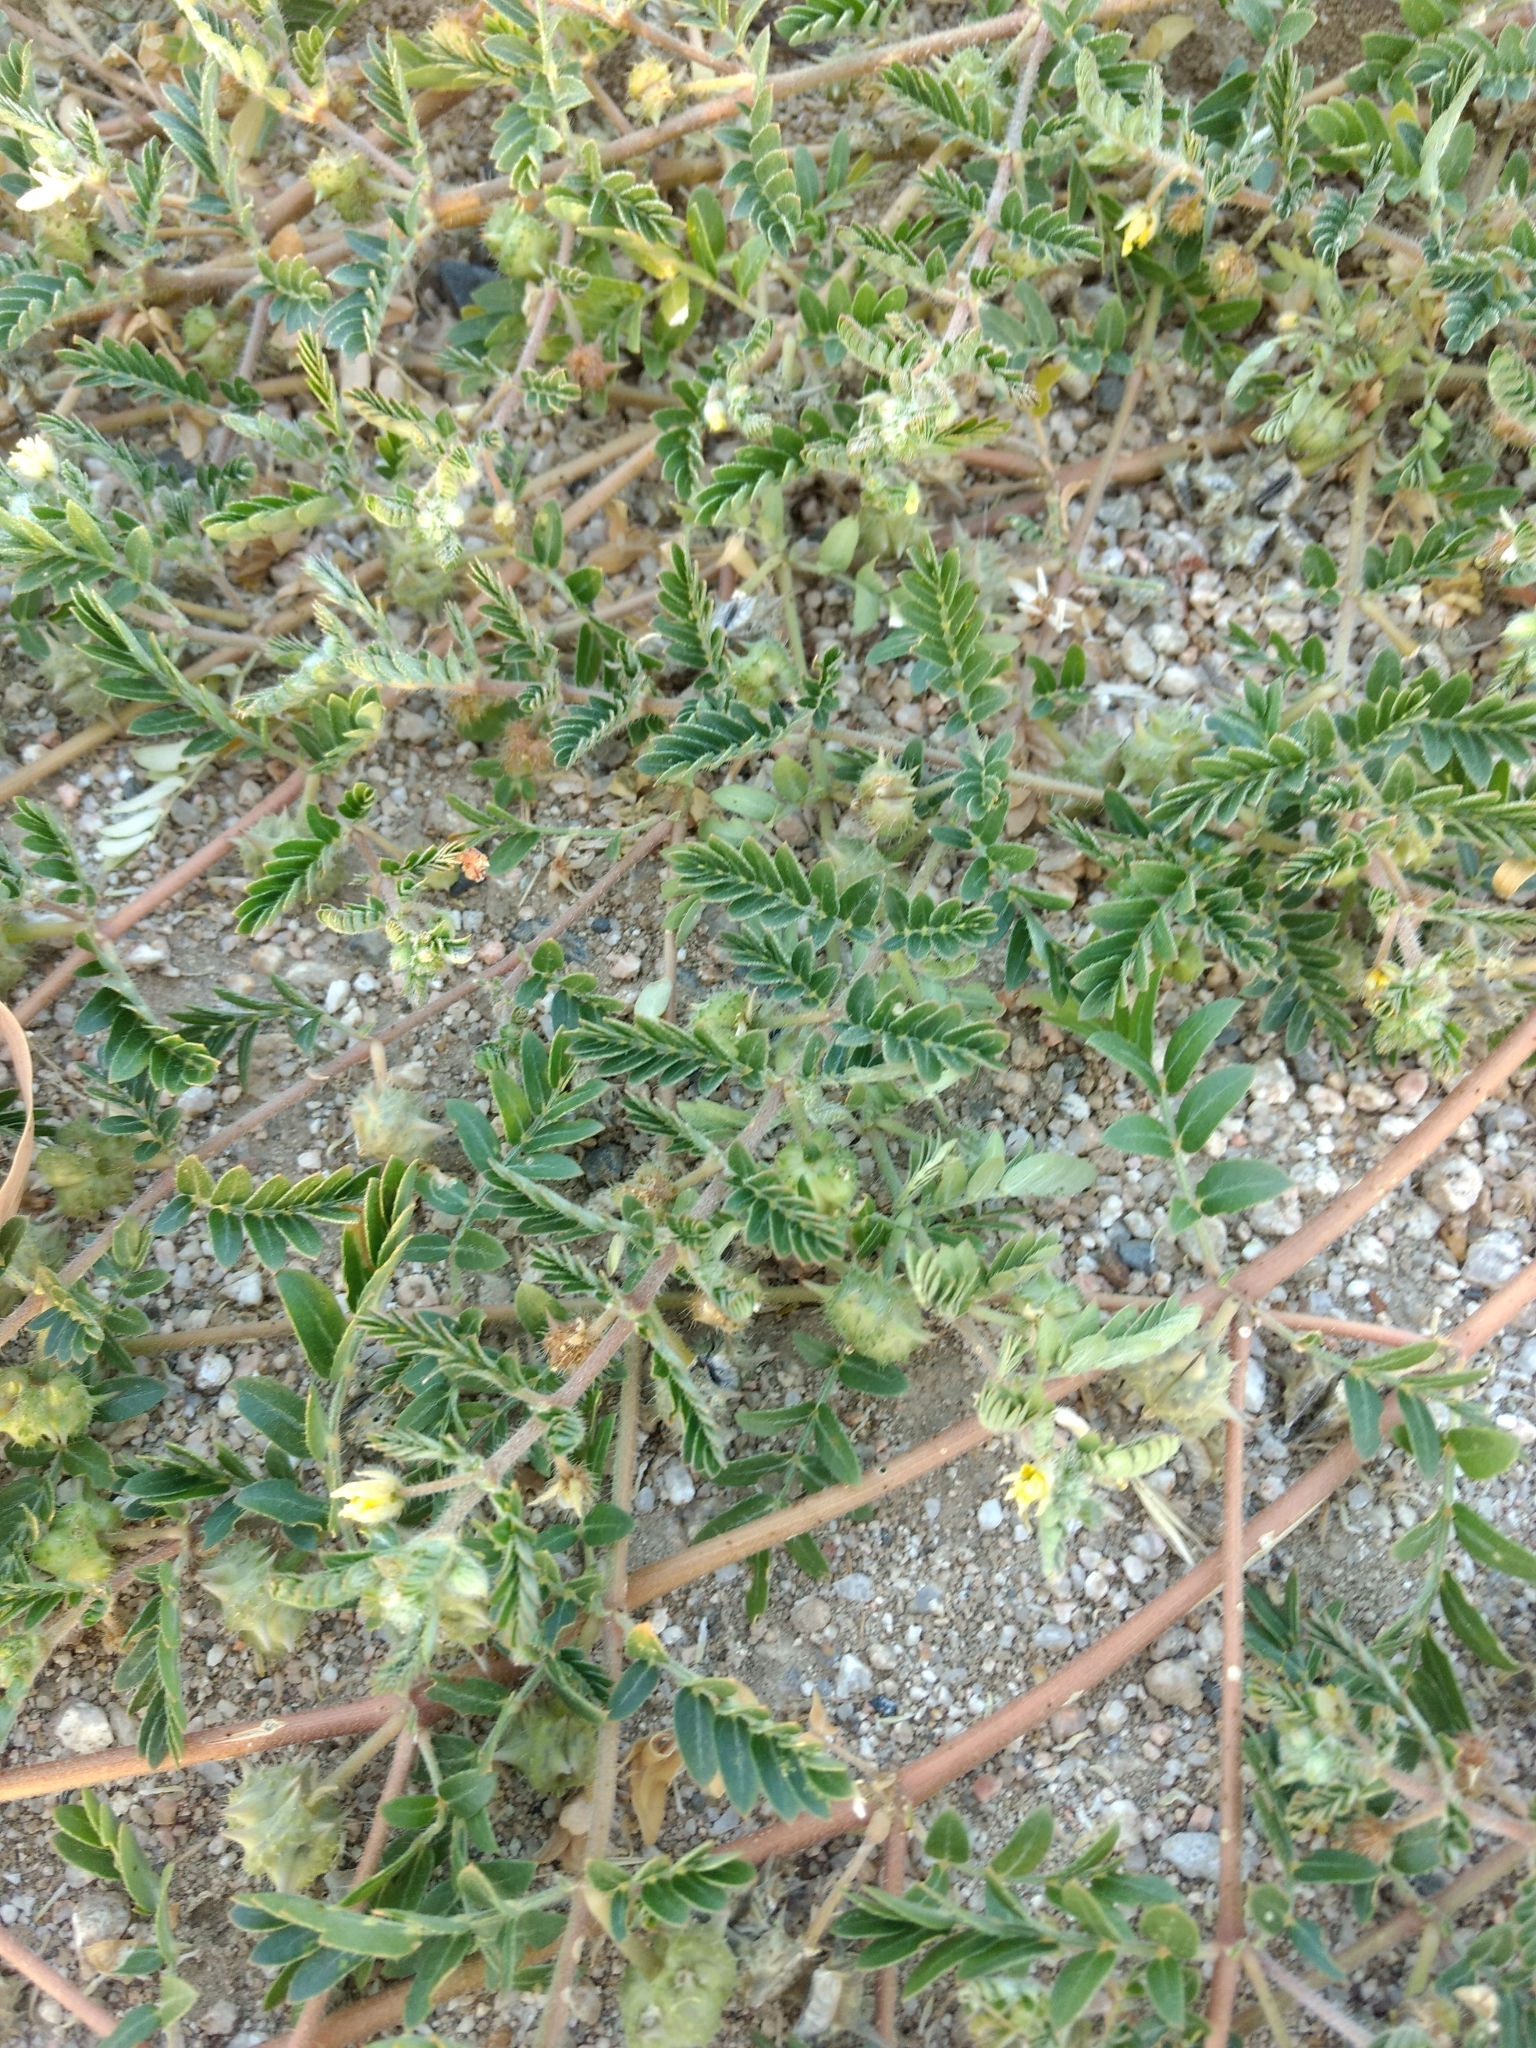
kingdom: Plantae
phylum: Tracheophyta
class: Magnoliopsida
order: Zygophyllales
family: Zygophyllaceae
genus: Tribulus
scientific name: Tribulus terrestris
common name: Puncturevine
